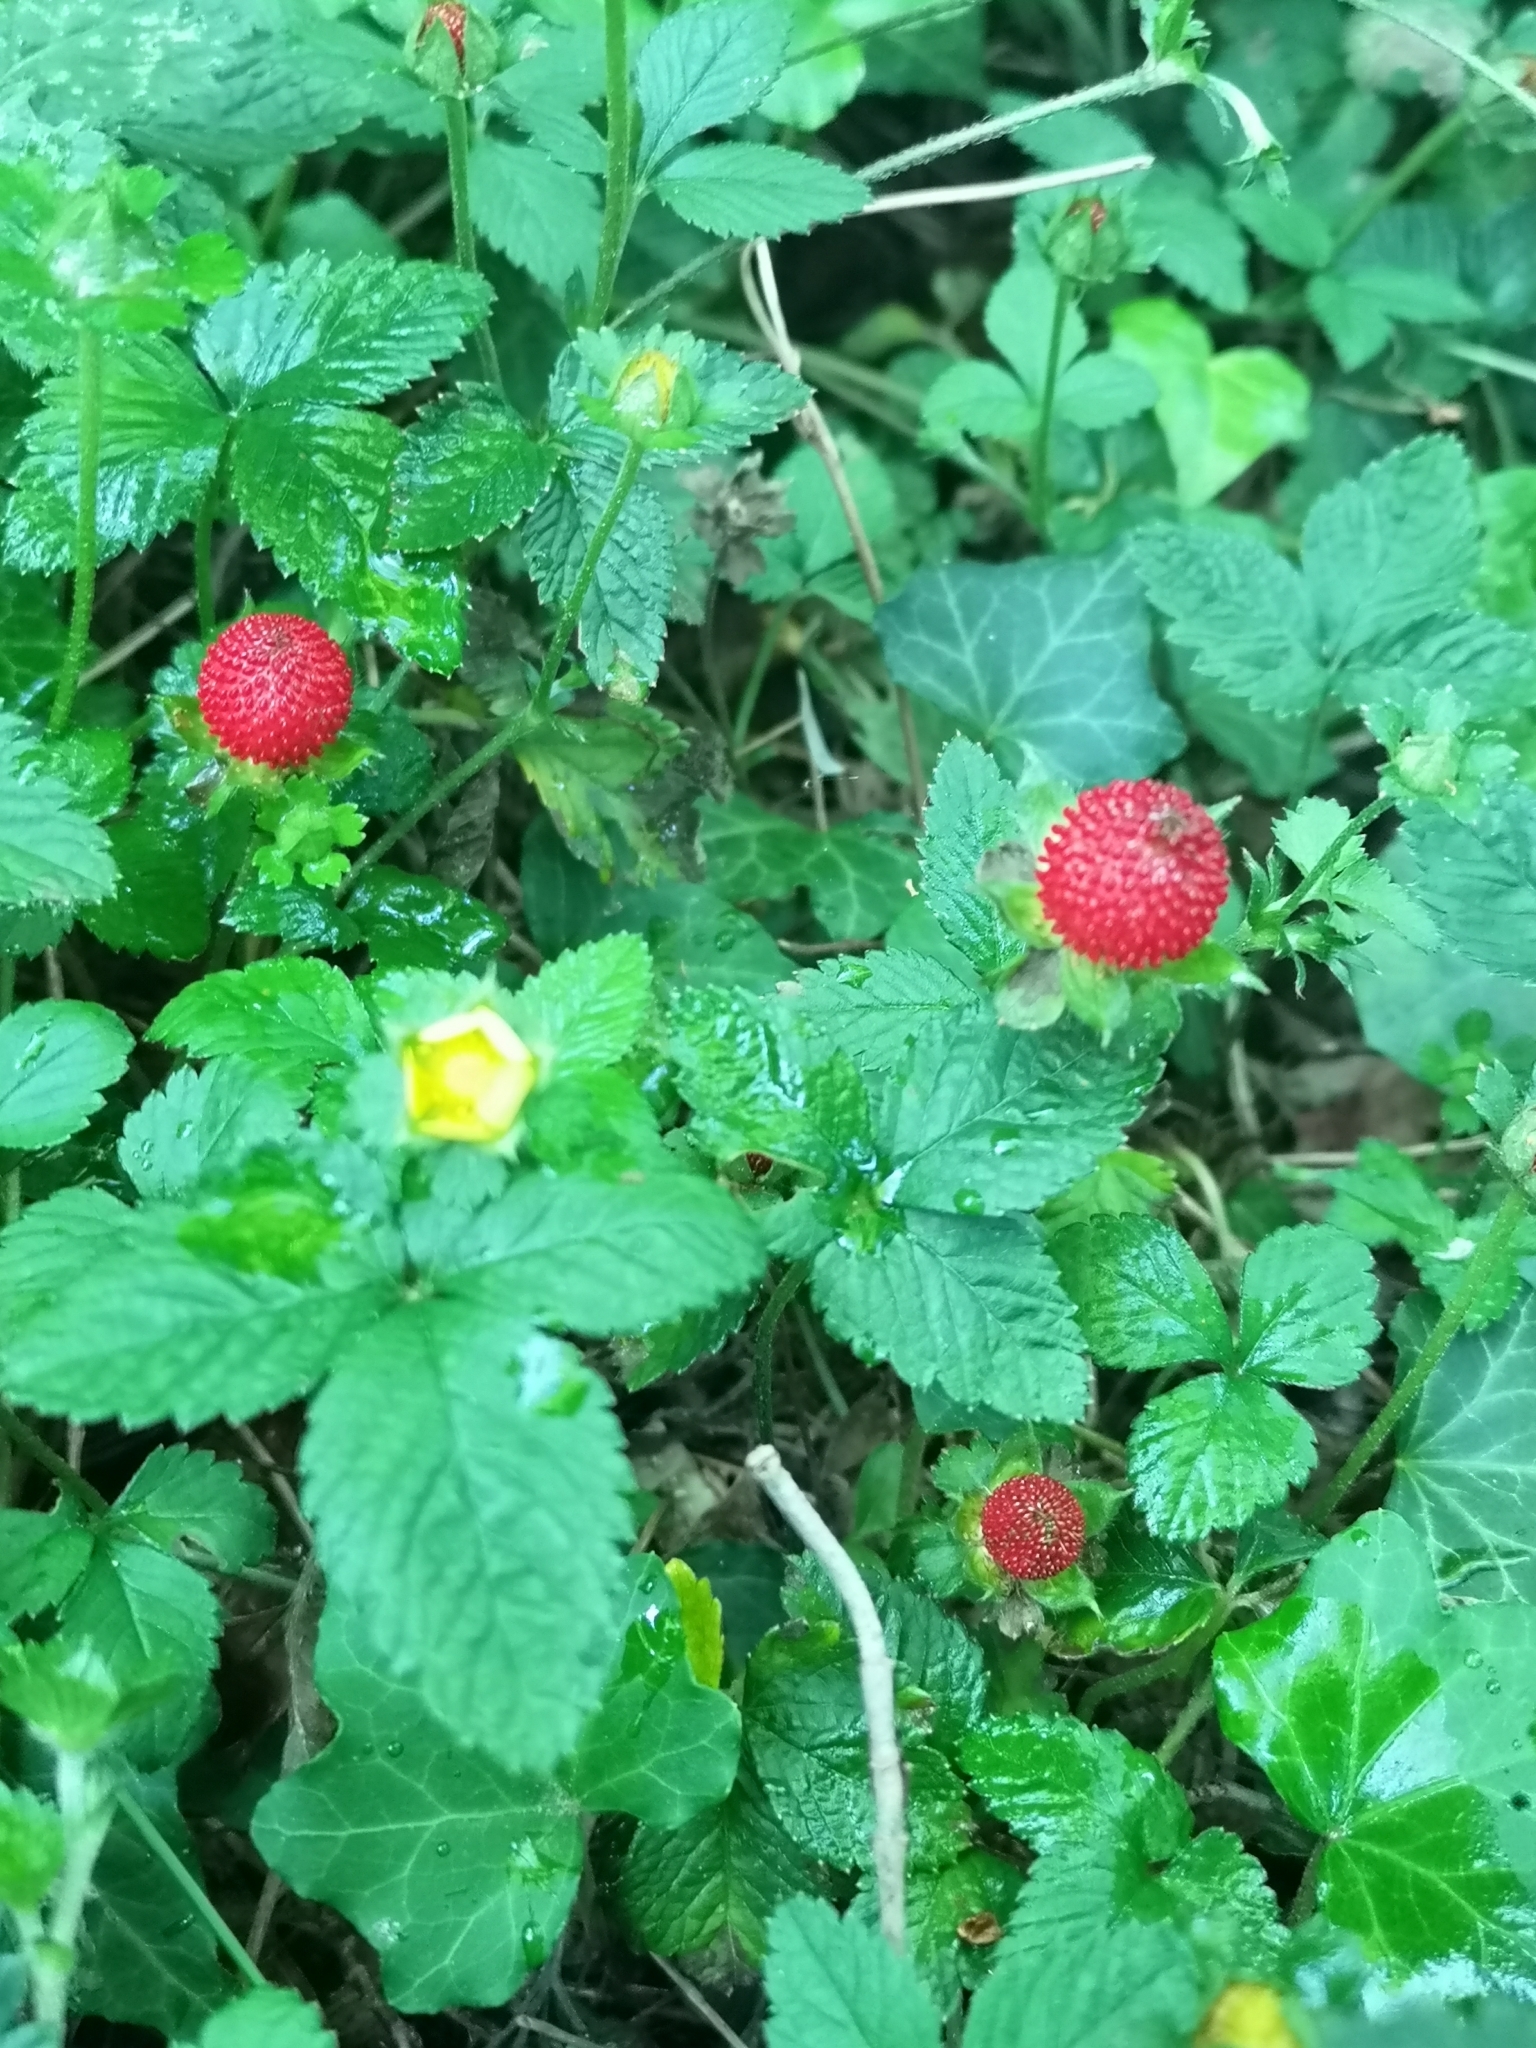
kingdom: Plantae
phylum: Tracheophyta
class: Magnoliopsida
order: Rosales
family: Rosaceae
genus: Potentilla
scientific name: Potentilla indica
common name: Yellow-flowered strawberry
